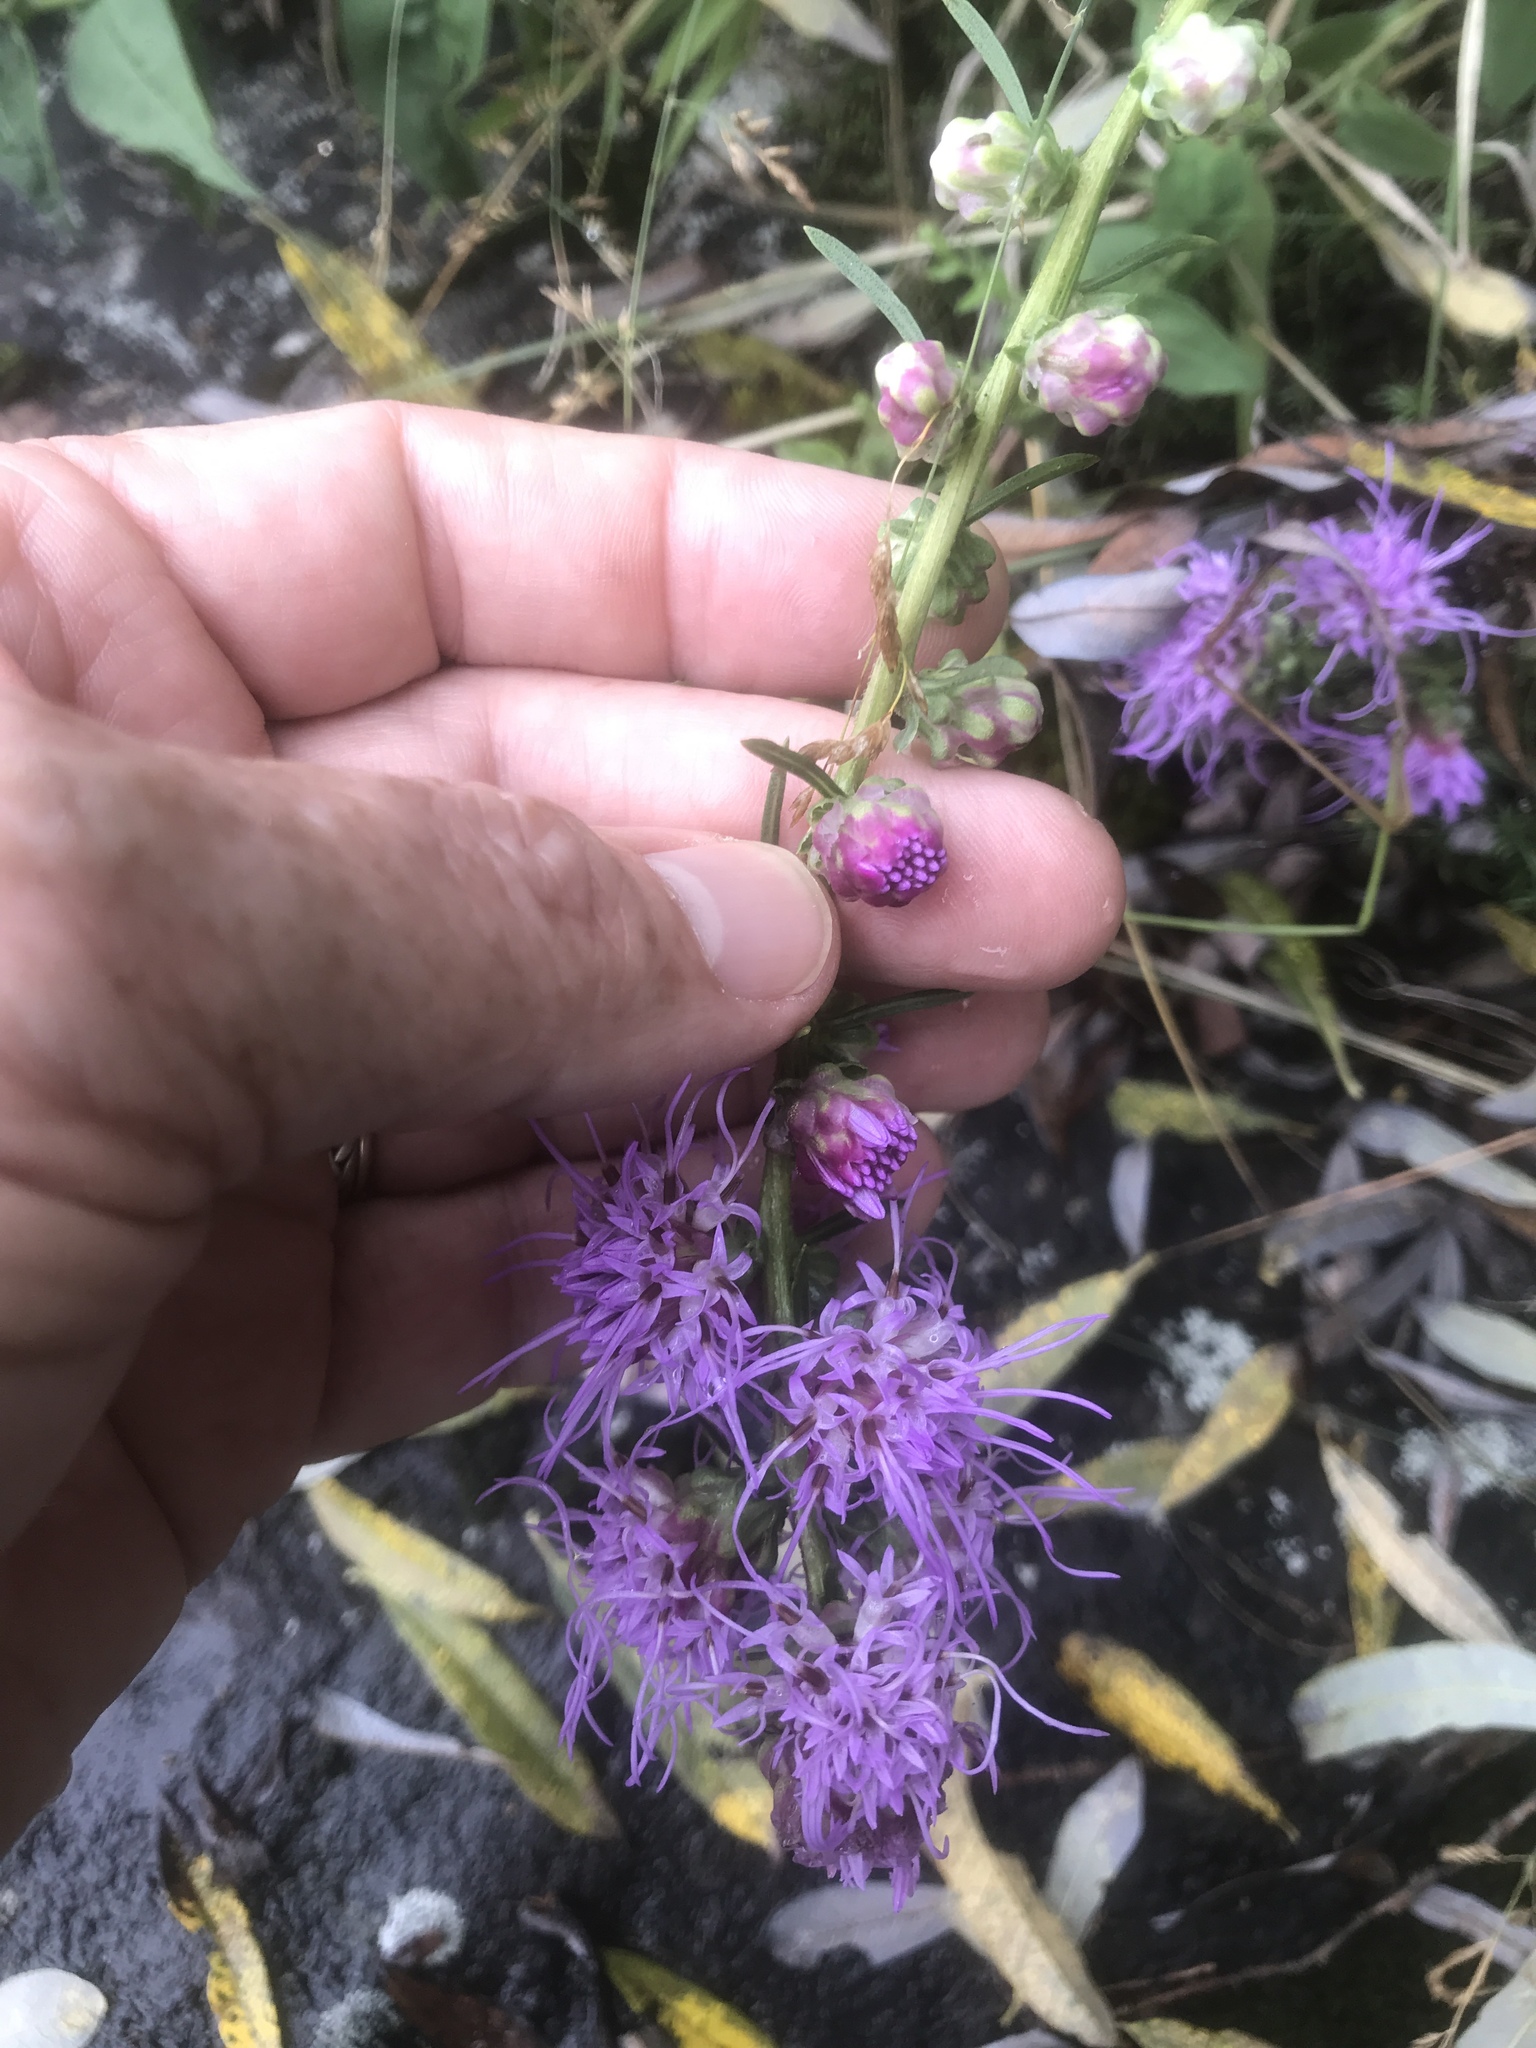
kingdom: Plantae
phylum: Tracheophyta
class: Magnoliopsida
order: Asterales
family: Asteraceae
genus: Liatris
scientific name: Liatris aspera
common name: Lacerate blazing-star
